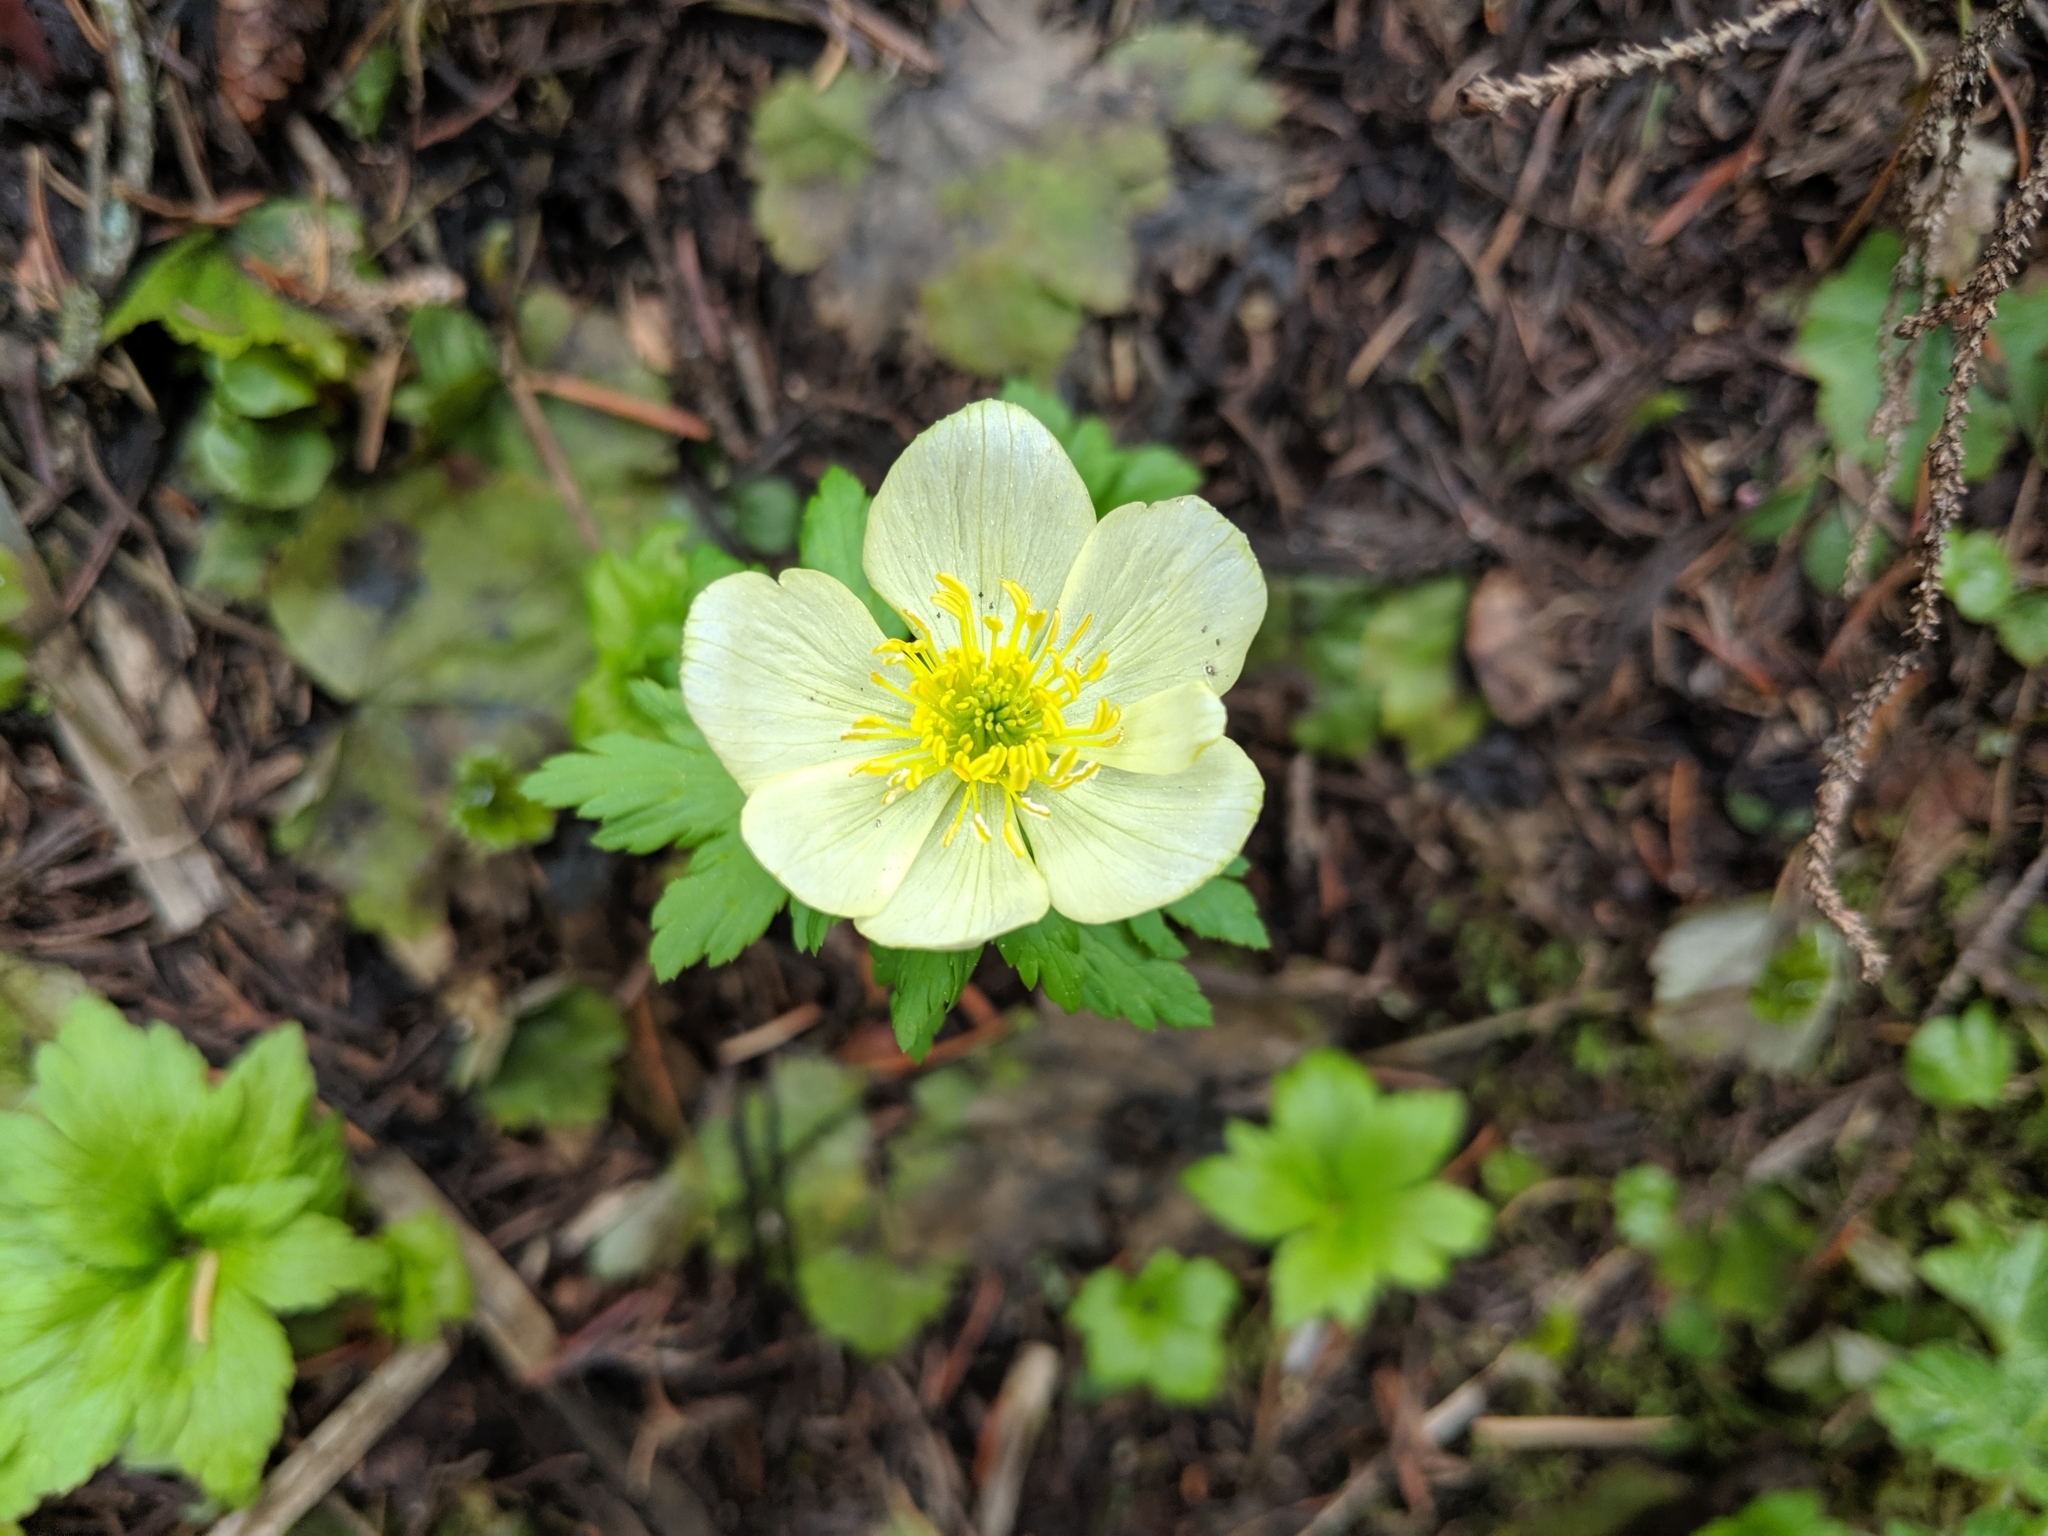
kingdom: Plantae
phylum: Tracheophyta
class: Magnoliopsida
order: Ranunculales
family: Ranunculaceae
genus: Trollius
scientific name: Trollius laxus
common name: American globeflower
